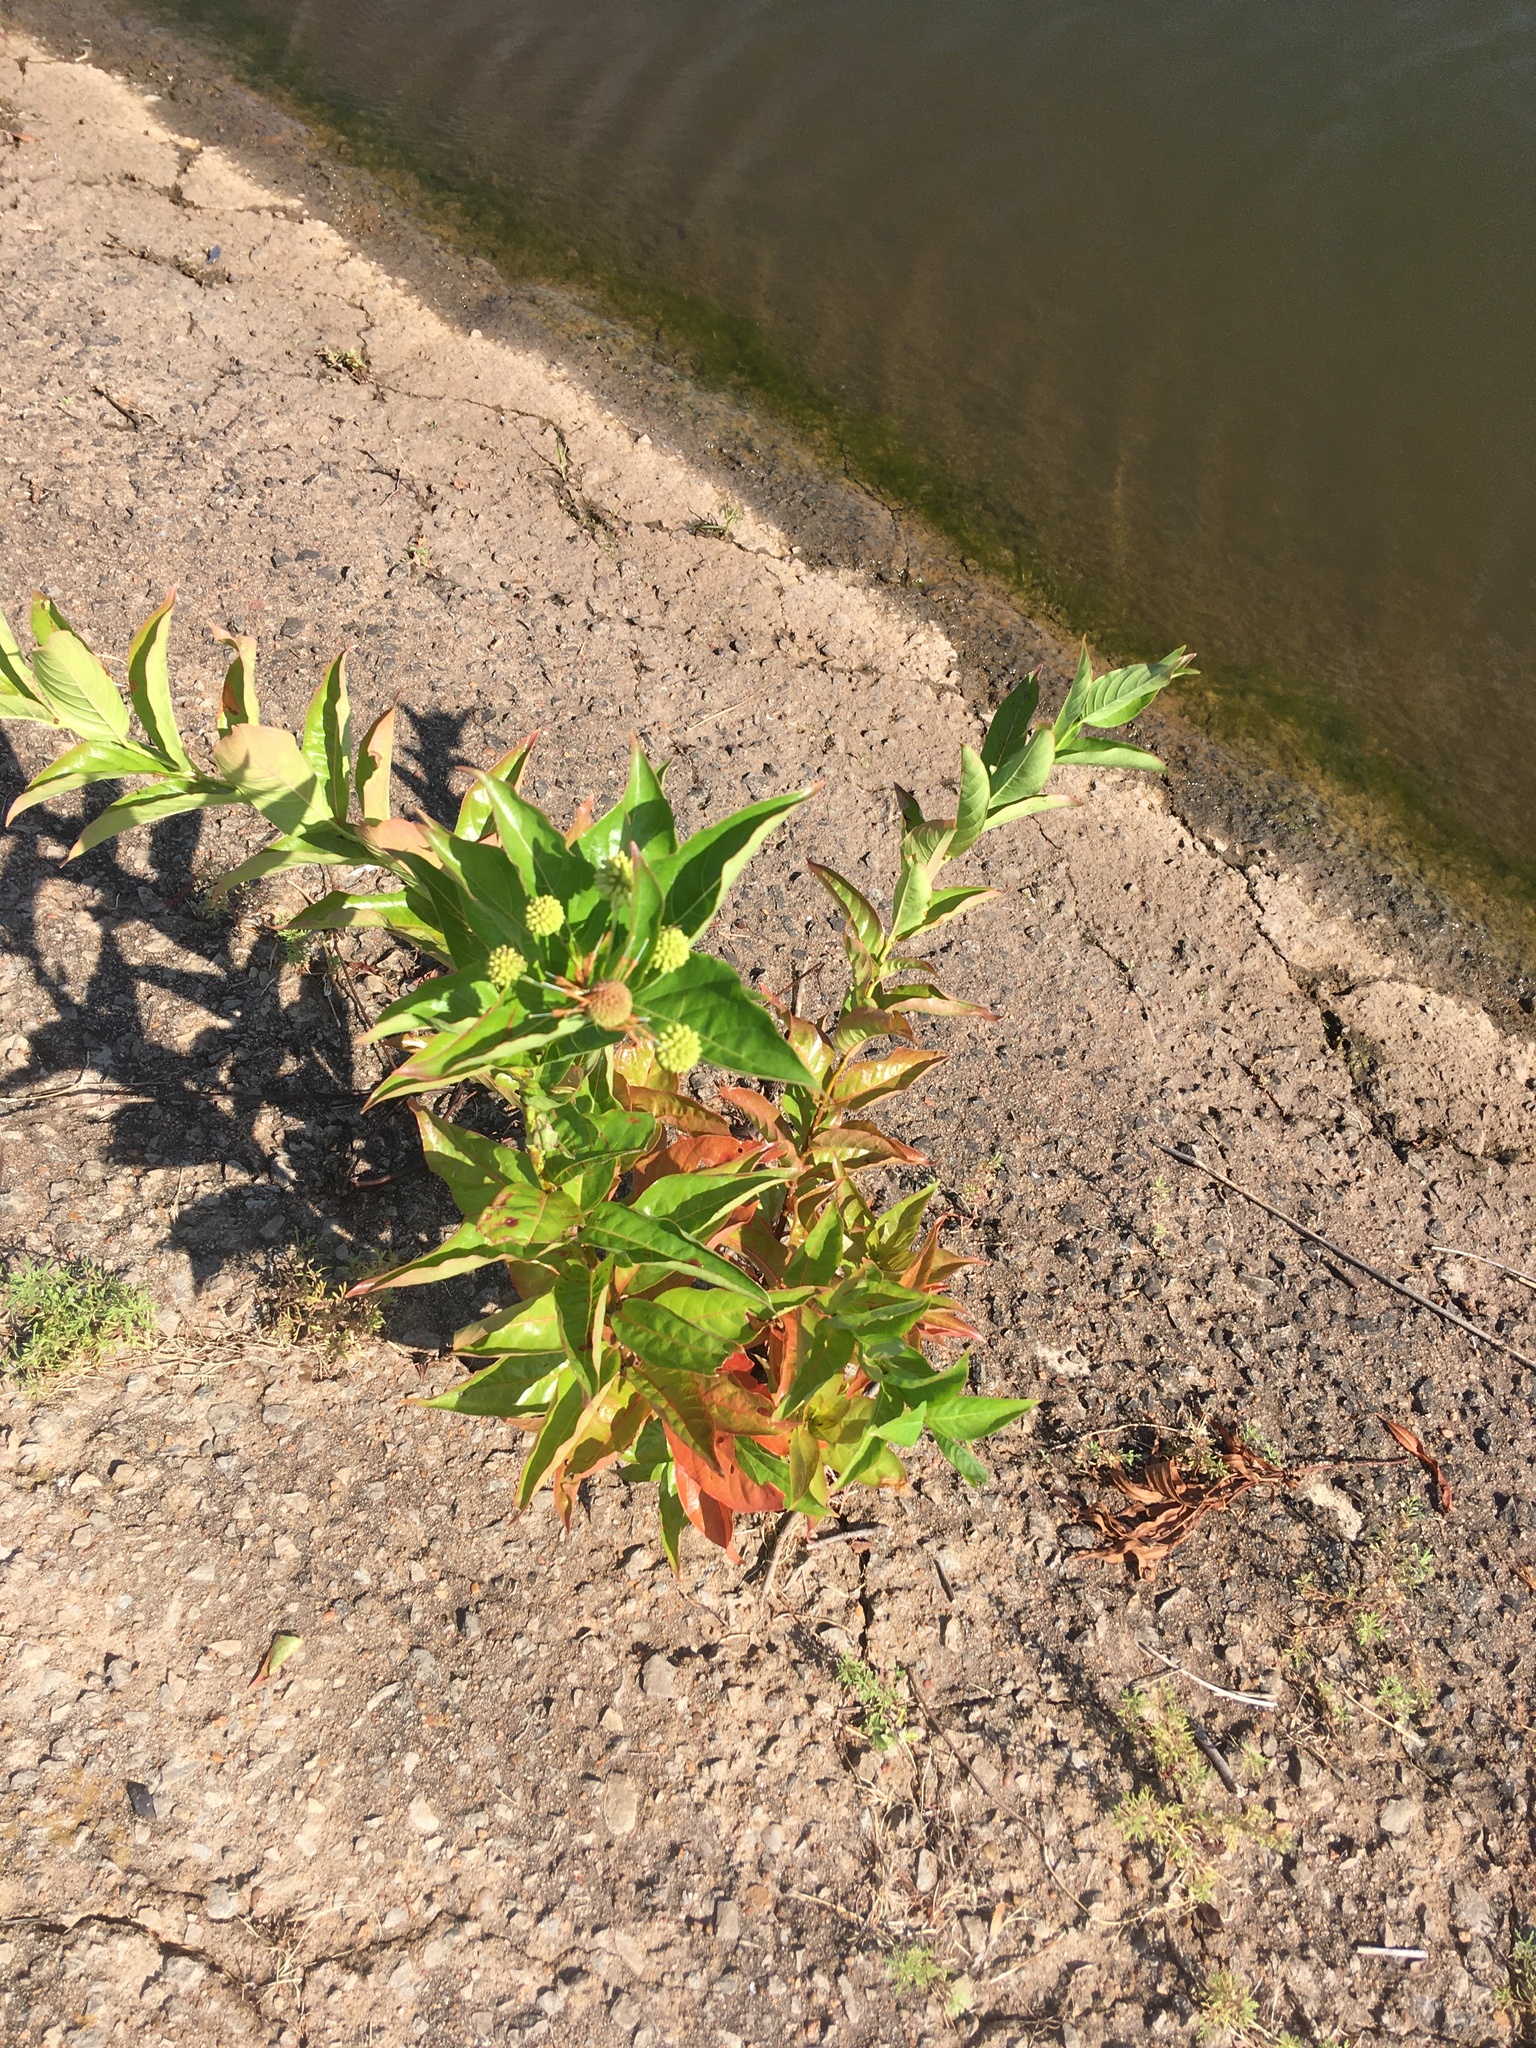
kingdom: Plantae
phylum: Tracheophyta
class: Magnoliopsida
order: Gentianales
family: Rubiaceae
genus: Cephalanthus
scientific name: Cephalanthus occidentalis
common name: Button-willow
